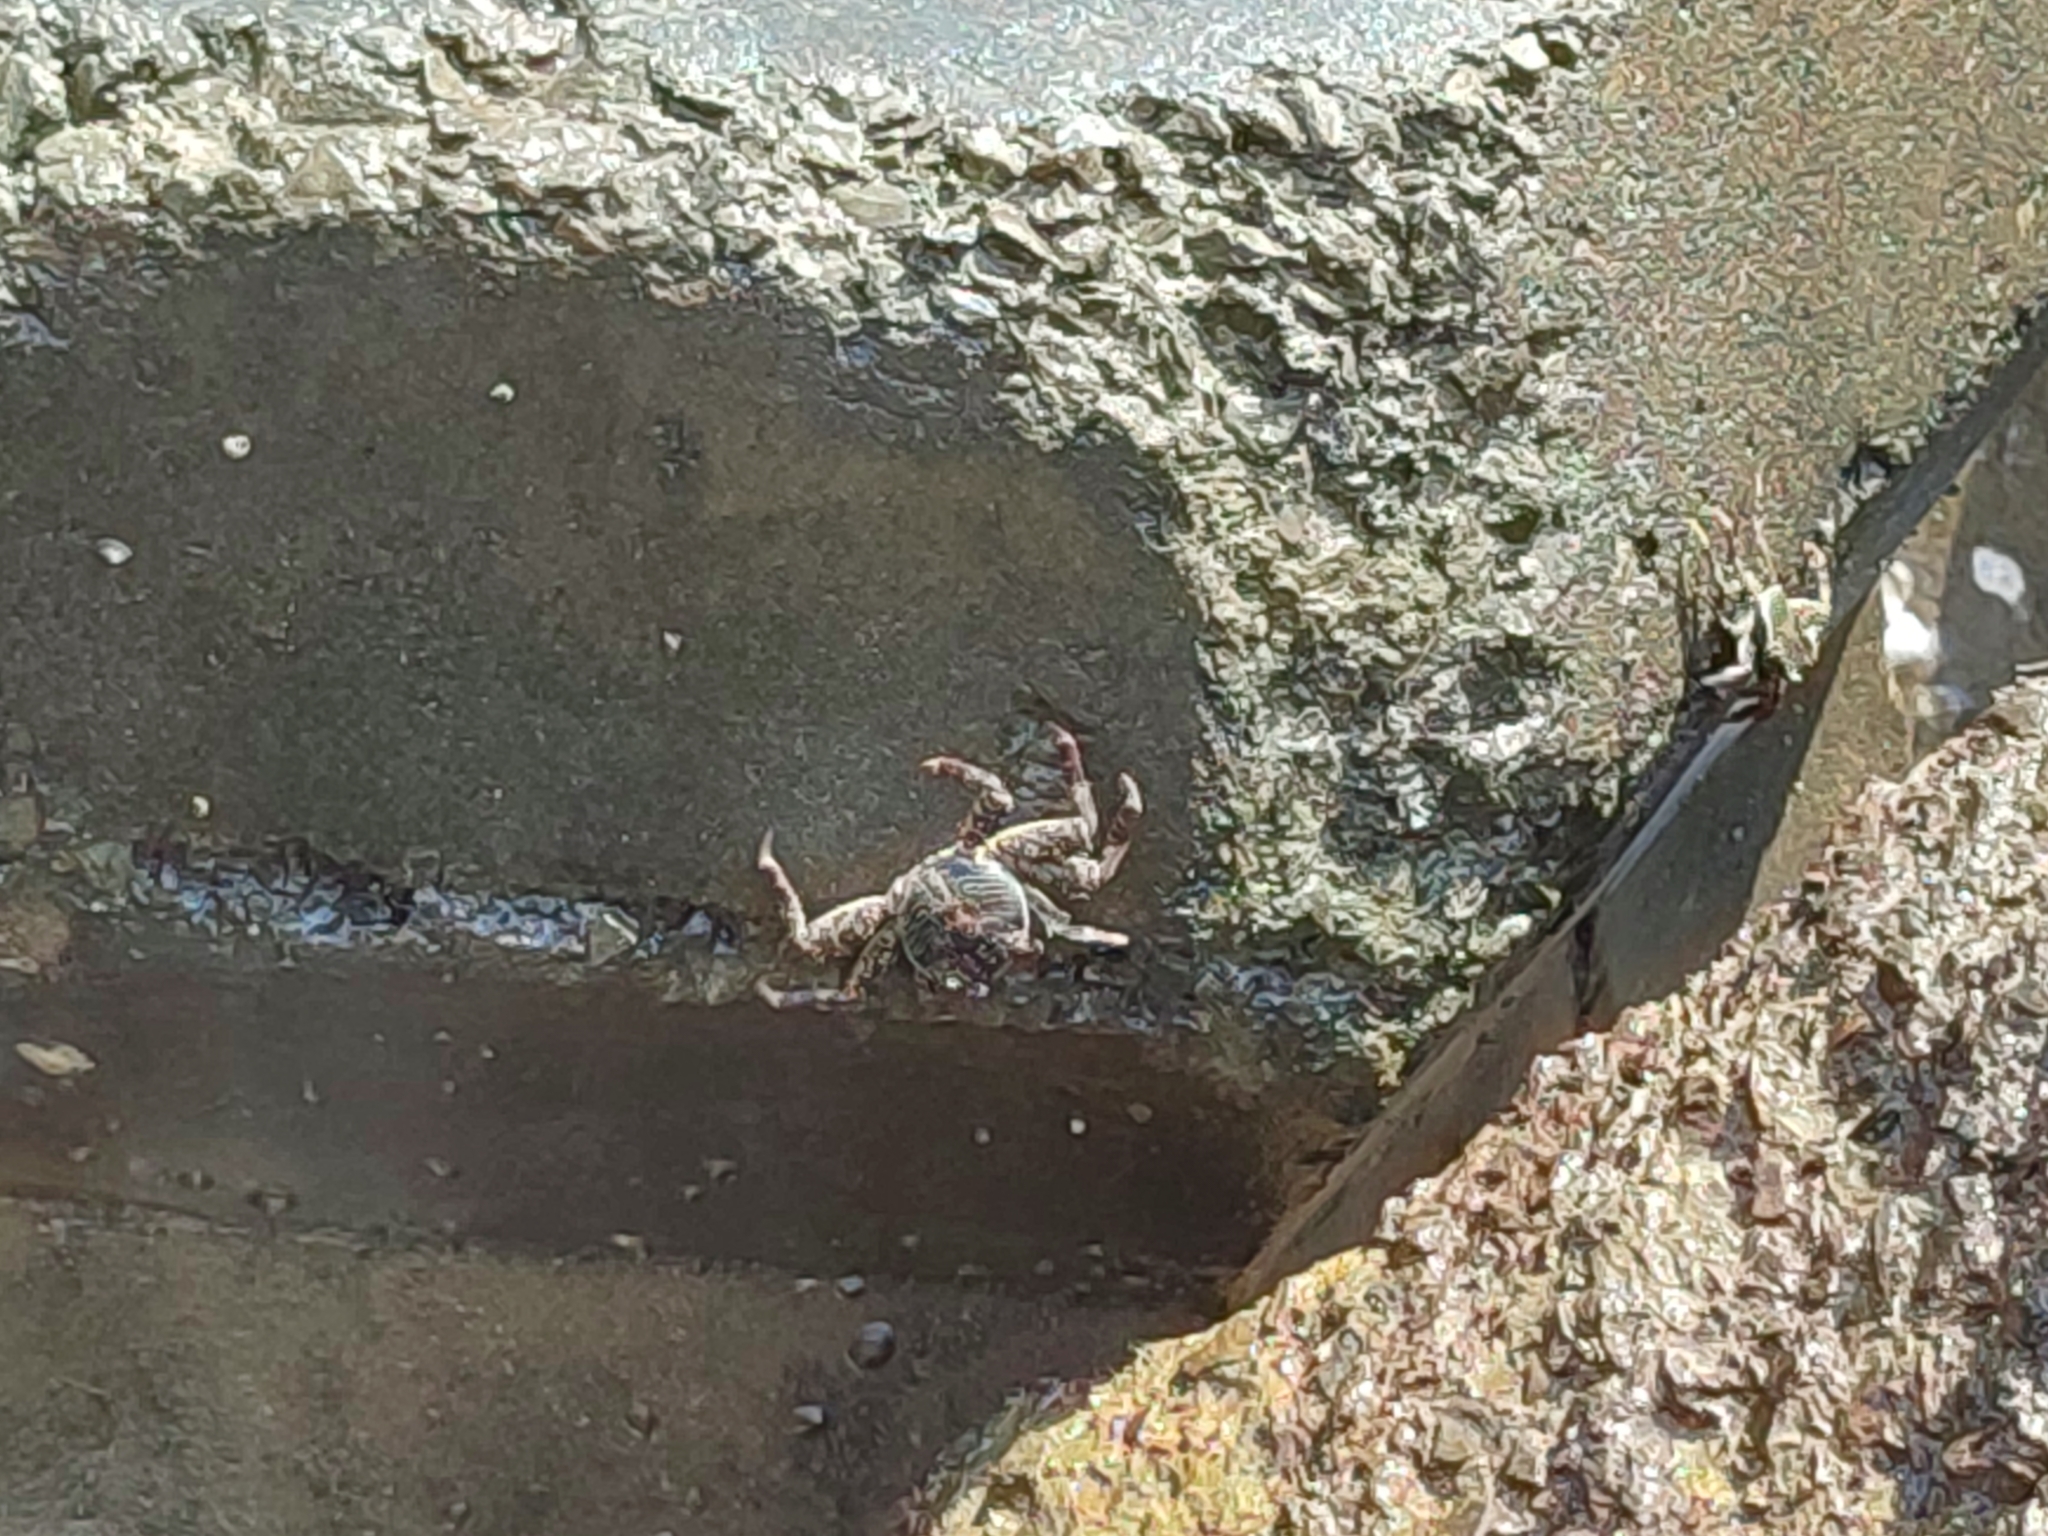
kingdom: Animalia
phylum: Arthropoda
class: Malacostraca
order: Decapoda
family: Grapsidae
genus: Grapsus
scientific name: Grapsus albolineatus
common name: Mottled lightfoot crab
